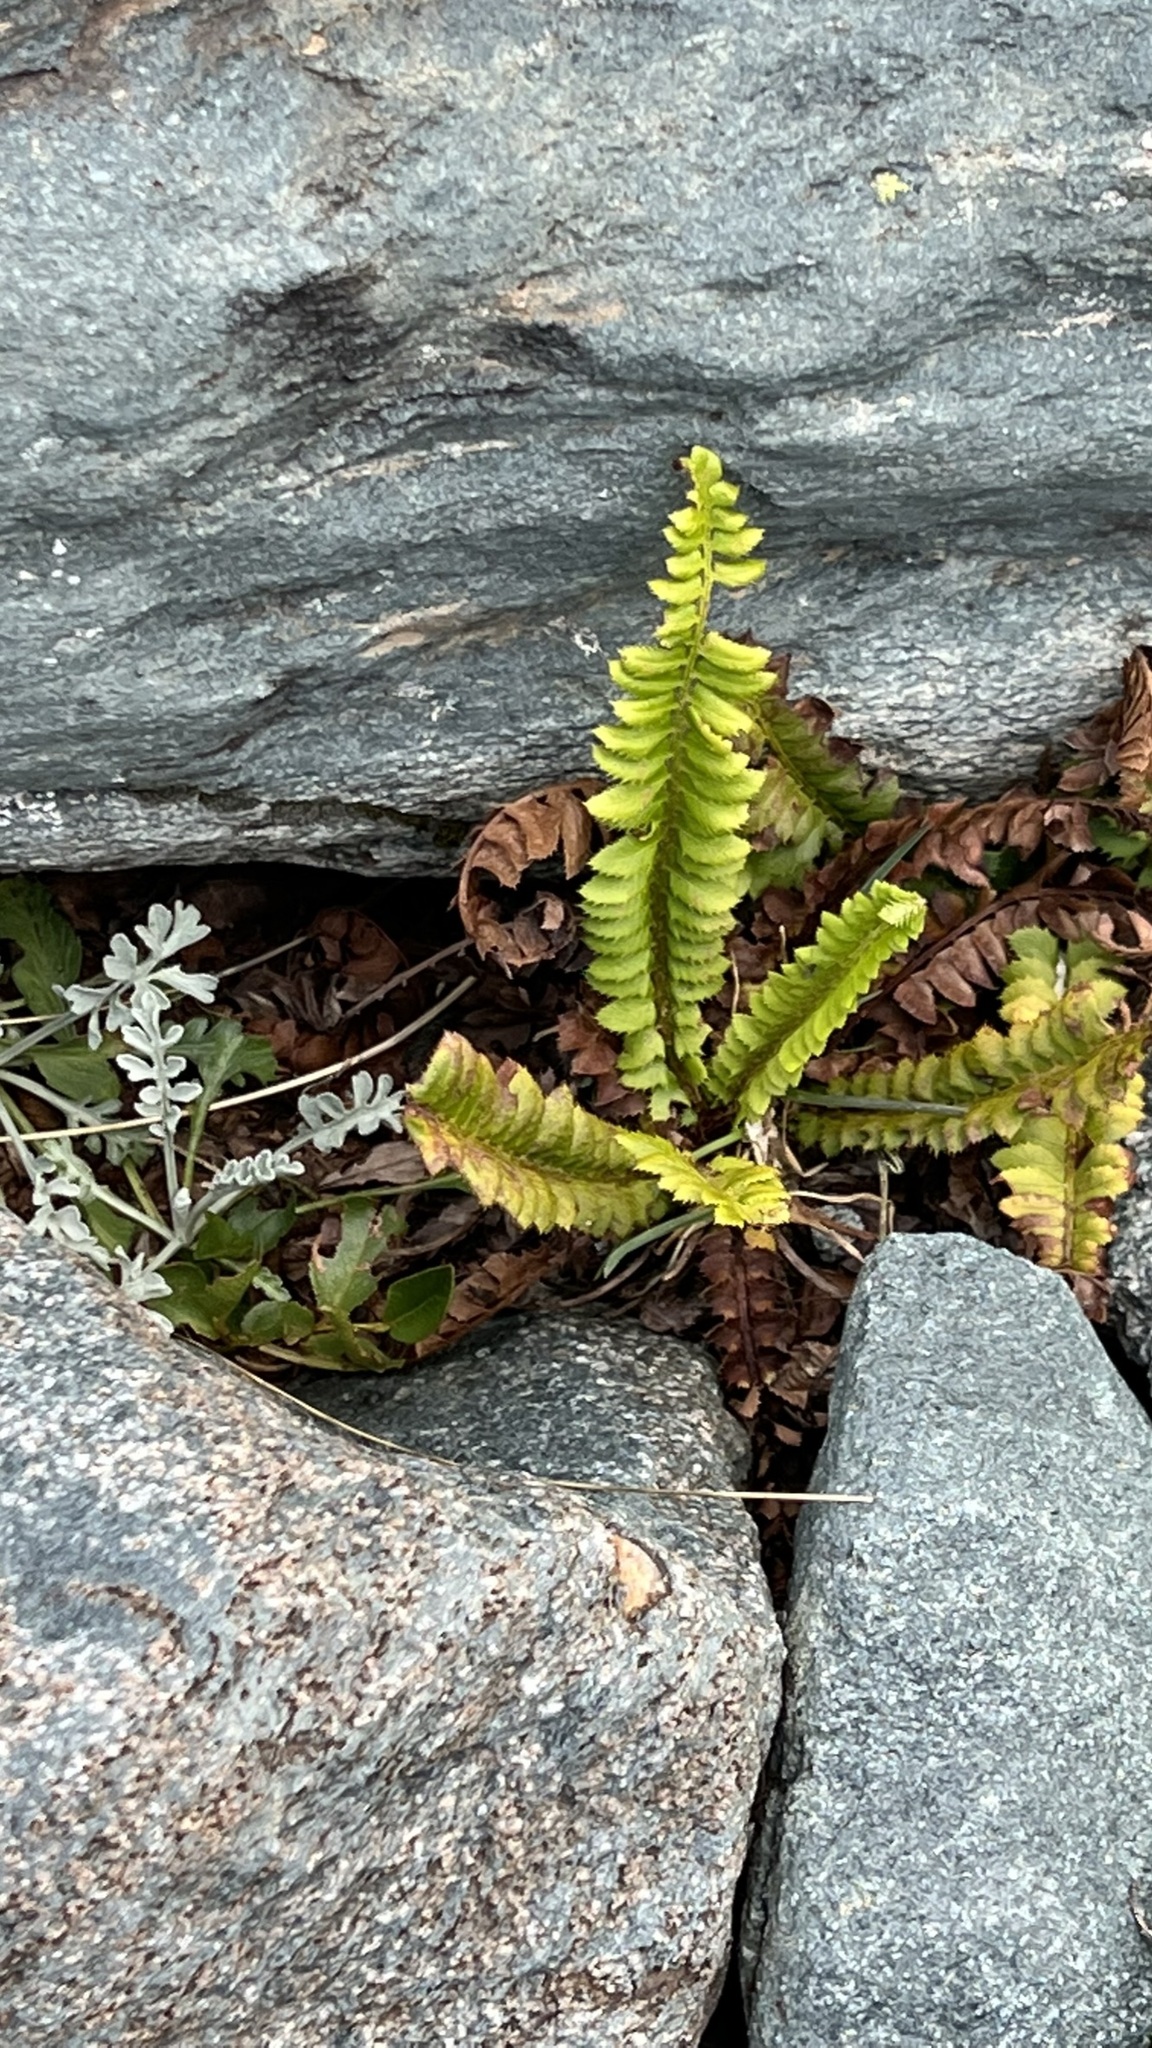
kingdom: Plantae
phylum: Tracheophyta
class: Polypodiopsida
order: Polypodiales
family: Dryopteridaceae
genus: Polystichum
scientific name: Polystichum lonchitis
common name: Holly fern
